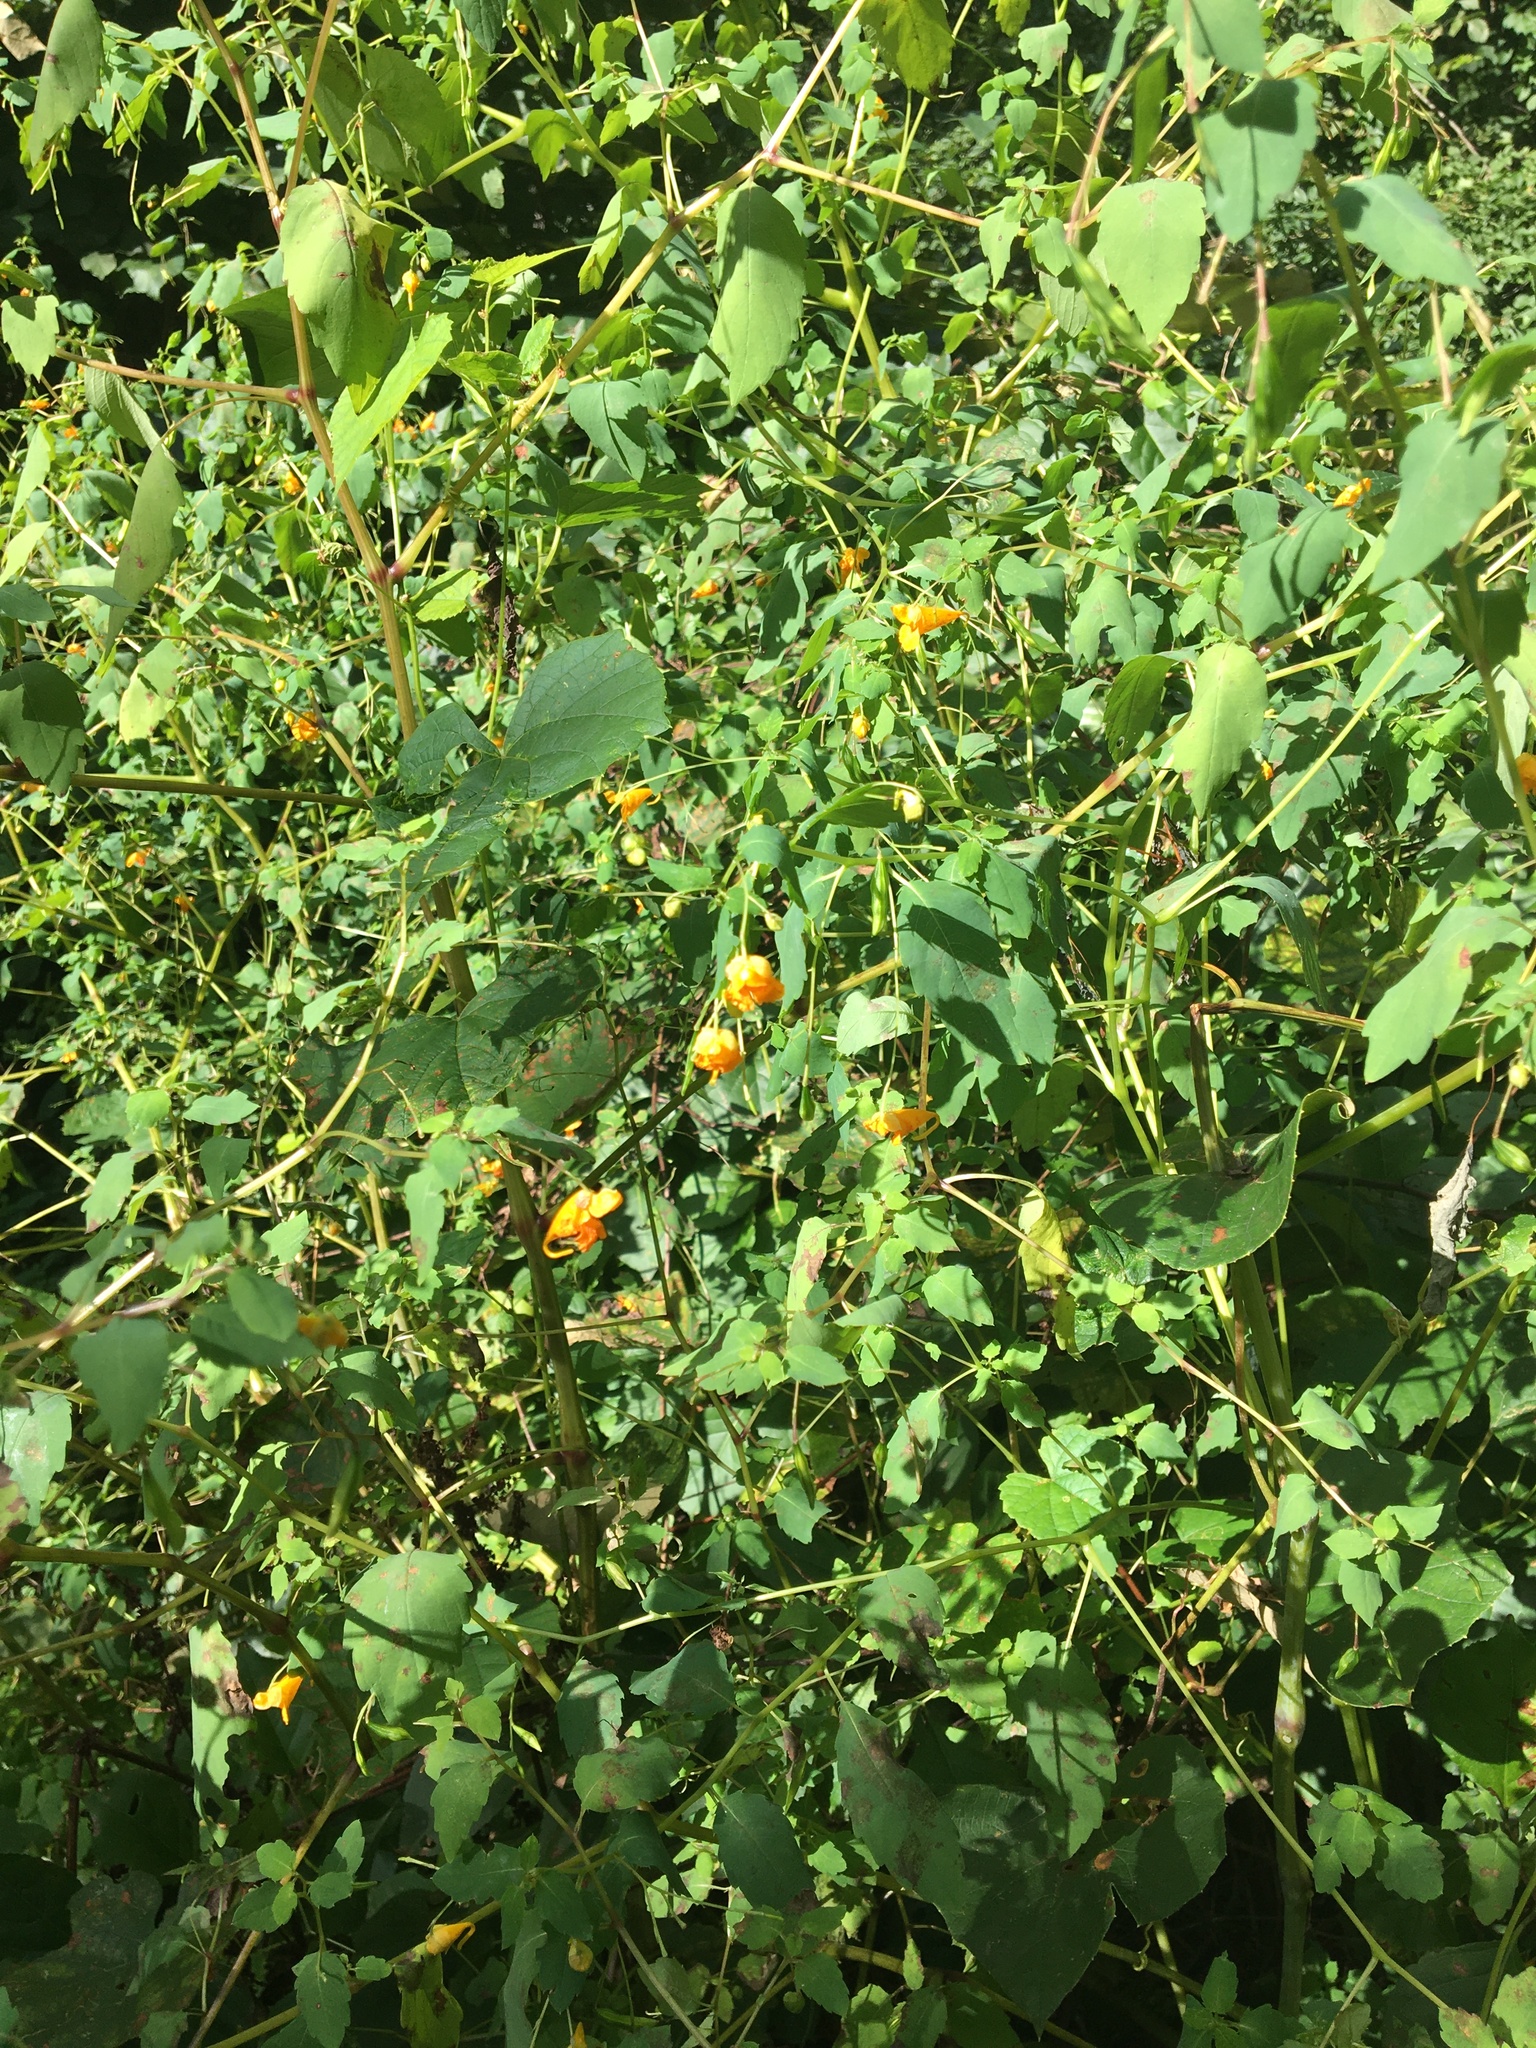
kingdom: Plantae
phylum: Tracheophyta
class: Magnoliopsida
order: Ericales
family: Balsaminaceae
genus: Impatiens
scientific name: Impatiens capensis
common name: Orange balsam
